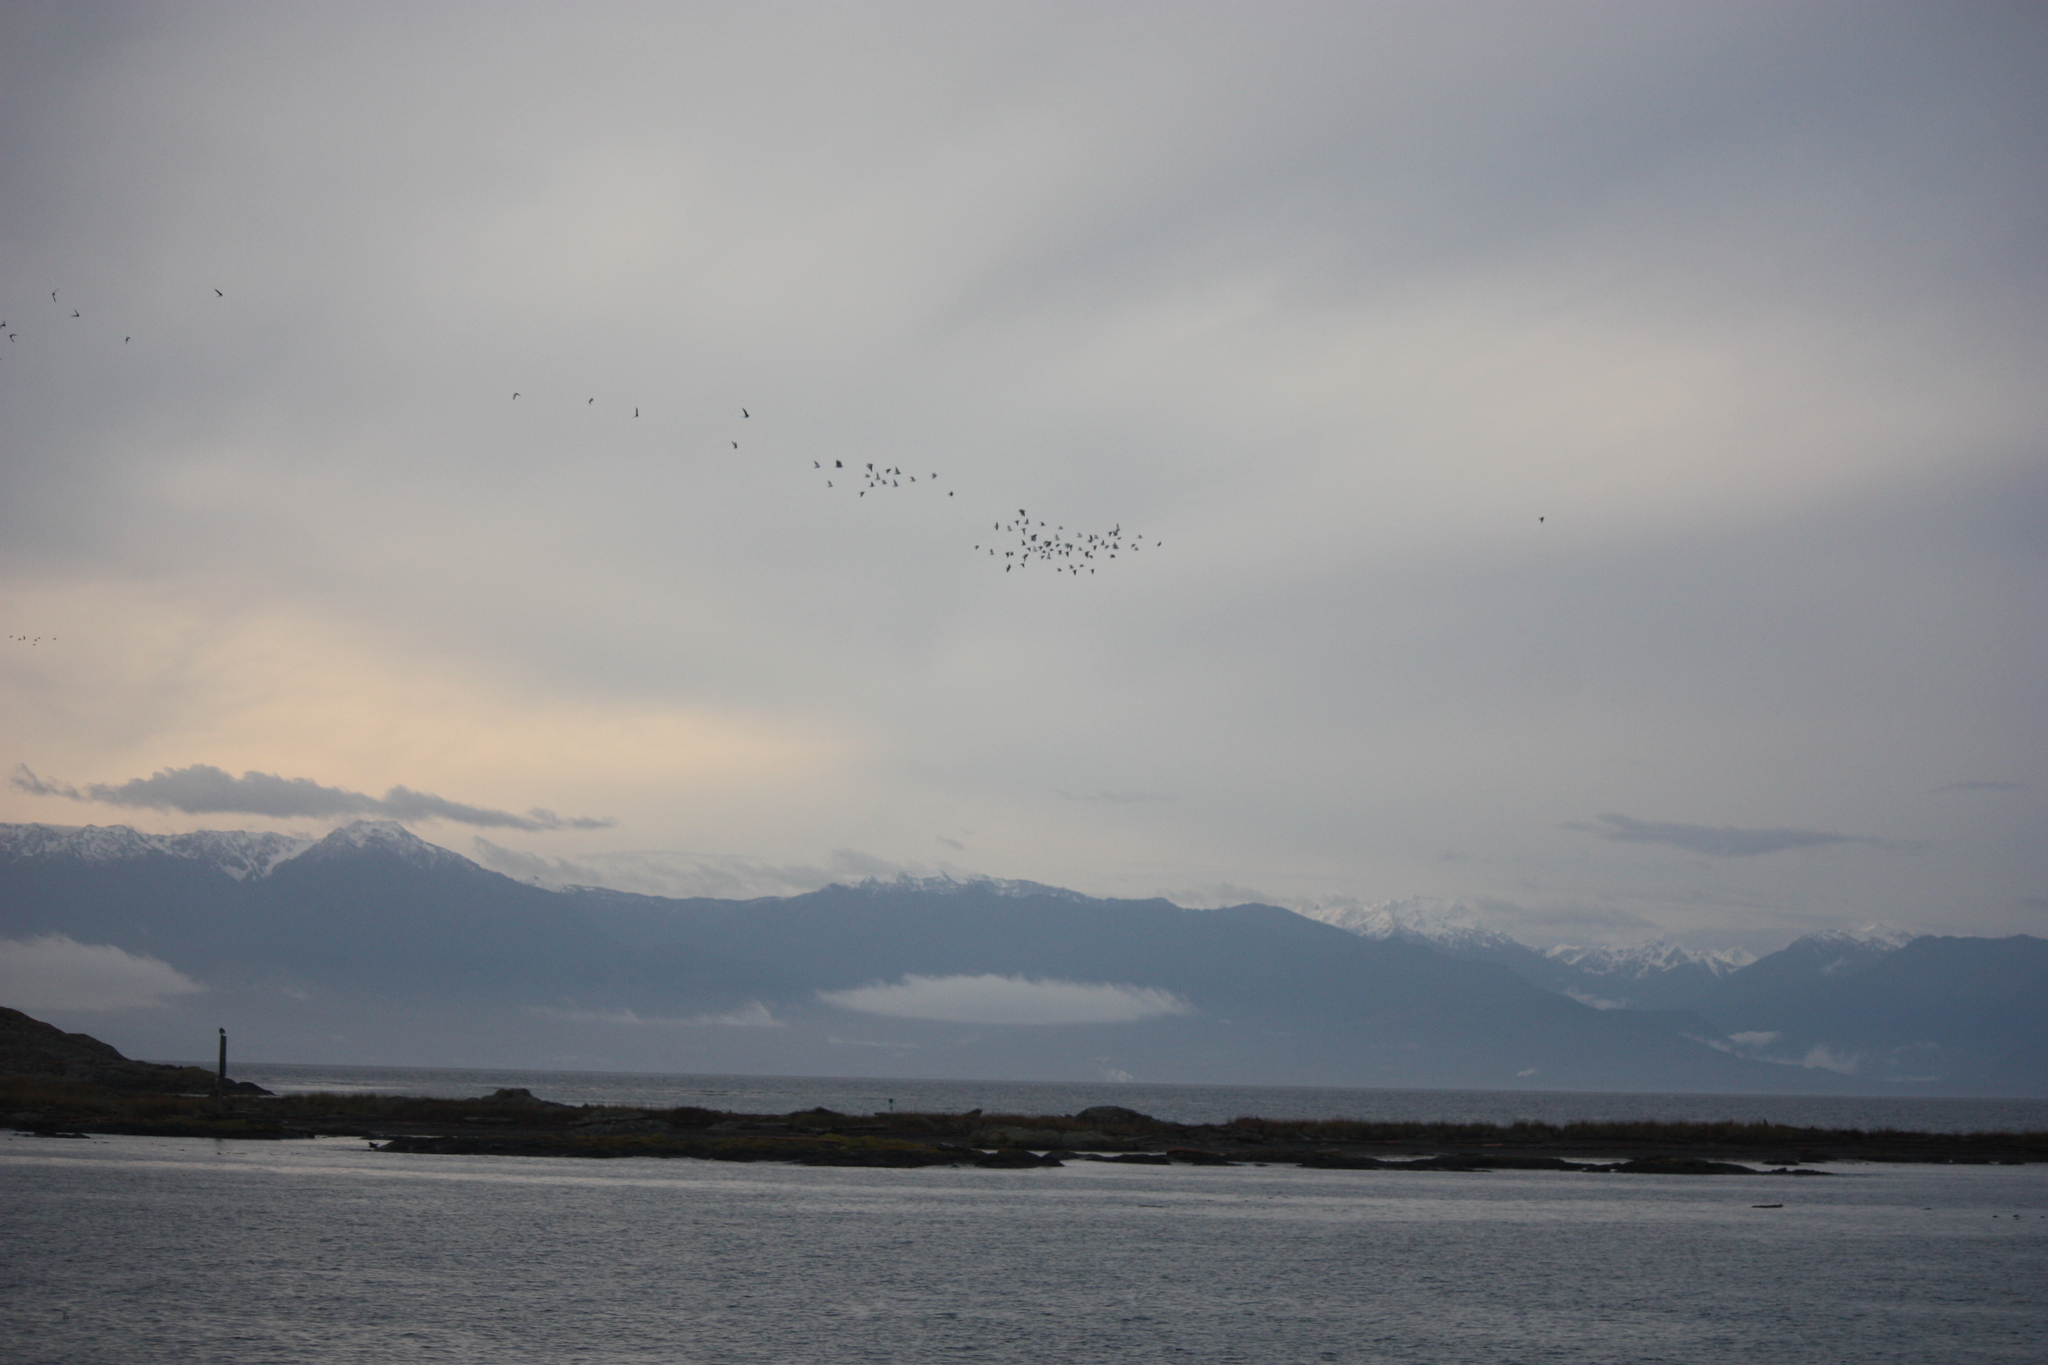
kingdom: Animalia
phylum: Chordata
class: Aves
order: Charadriiformes
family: Scolopacidae
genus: Arenaria
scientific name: Arenaria melanocephala
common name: Black turnstone
